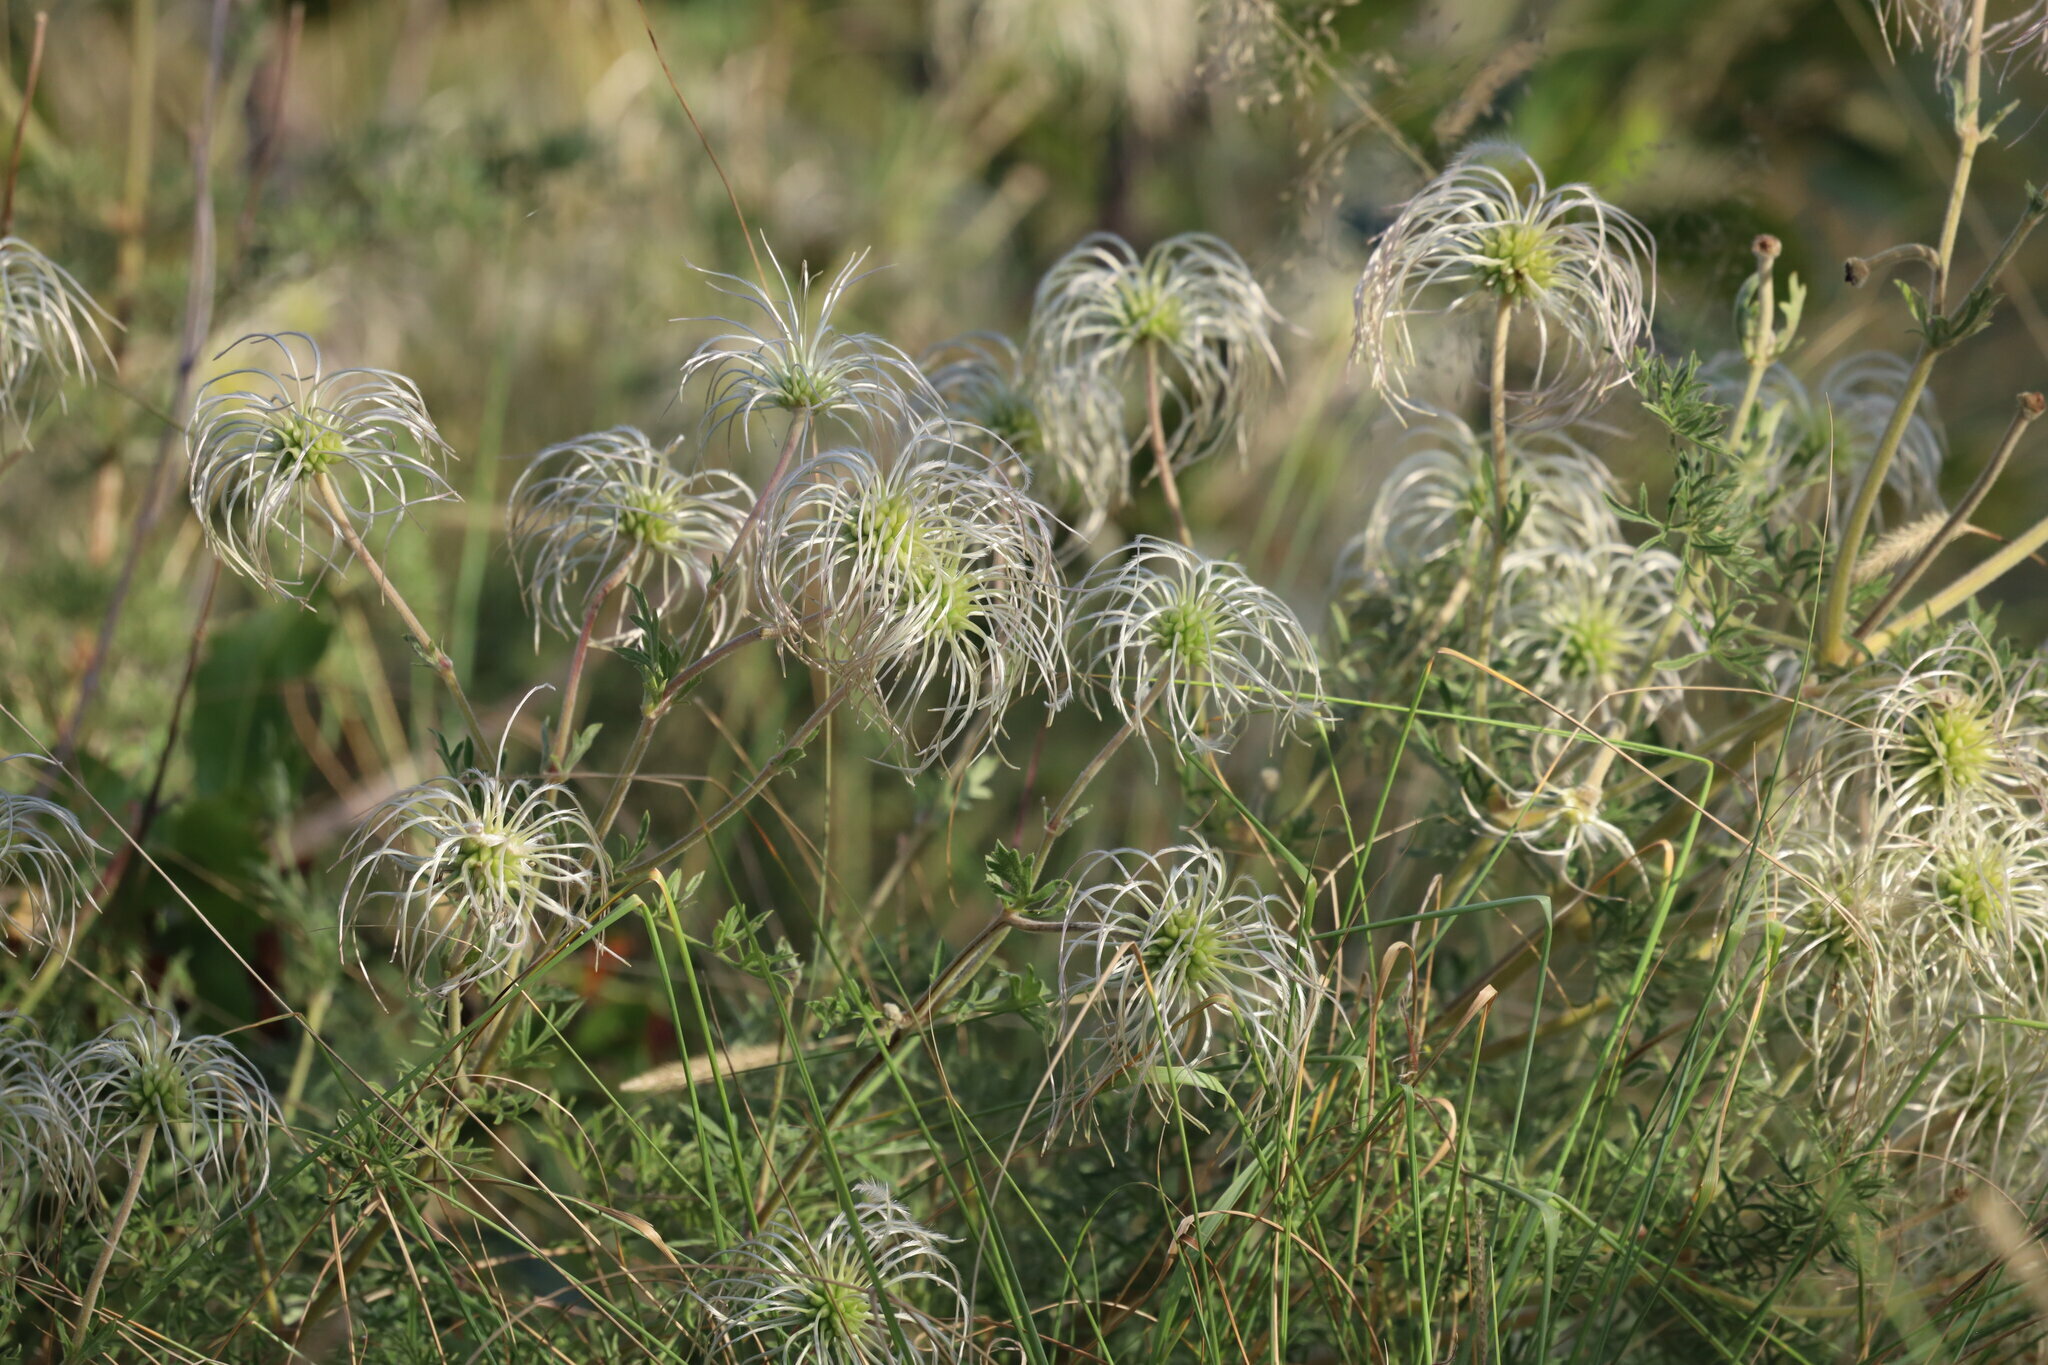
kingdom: Plantae
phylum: Tracheophyta
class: Magnoliopsida
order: Ranunculales
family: Ranunculaceae
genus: Clematis
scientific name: Clematis villosa
